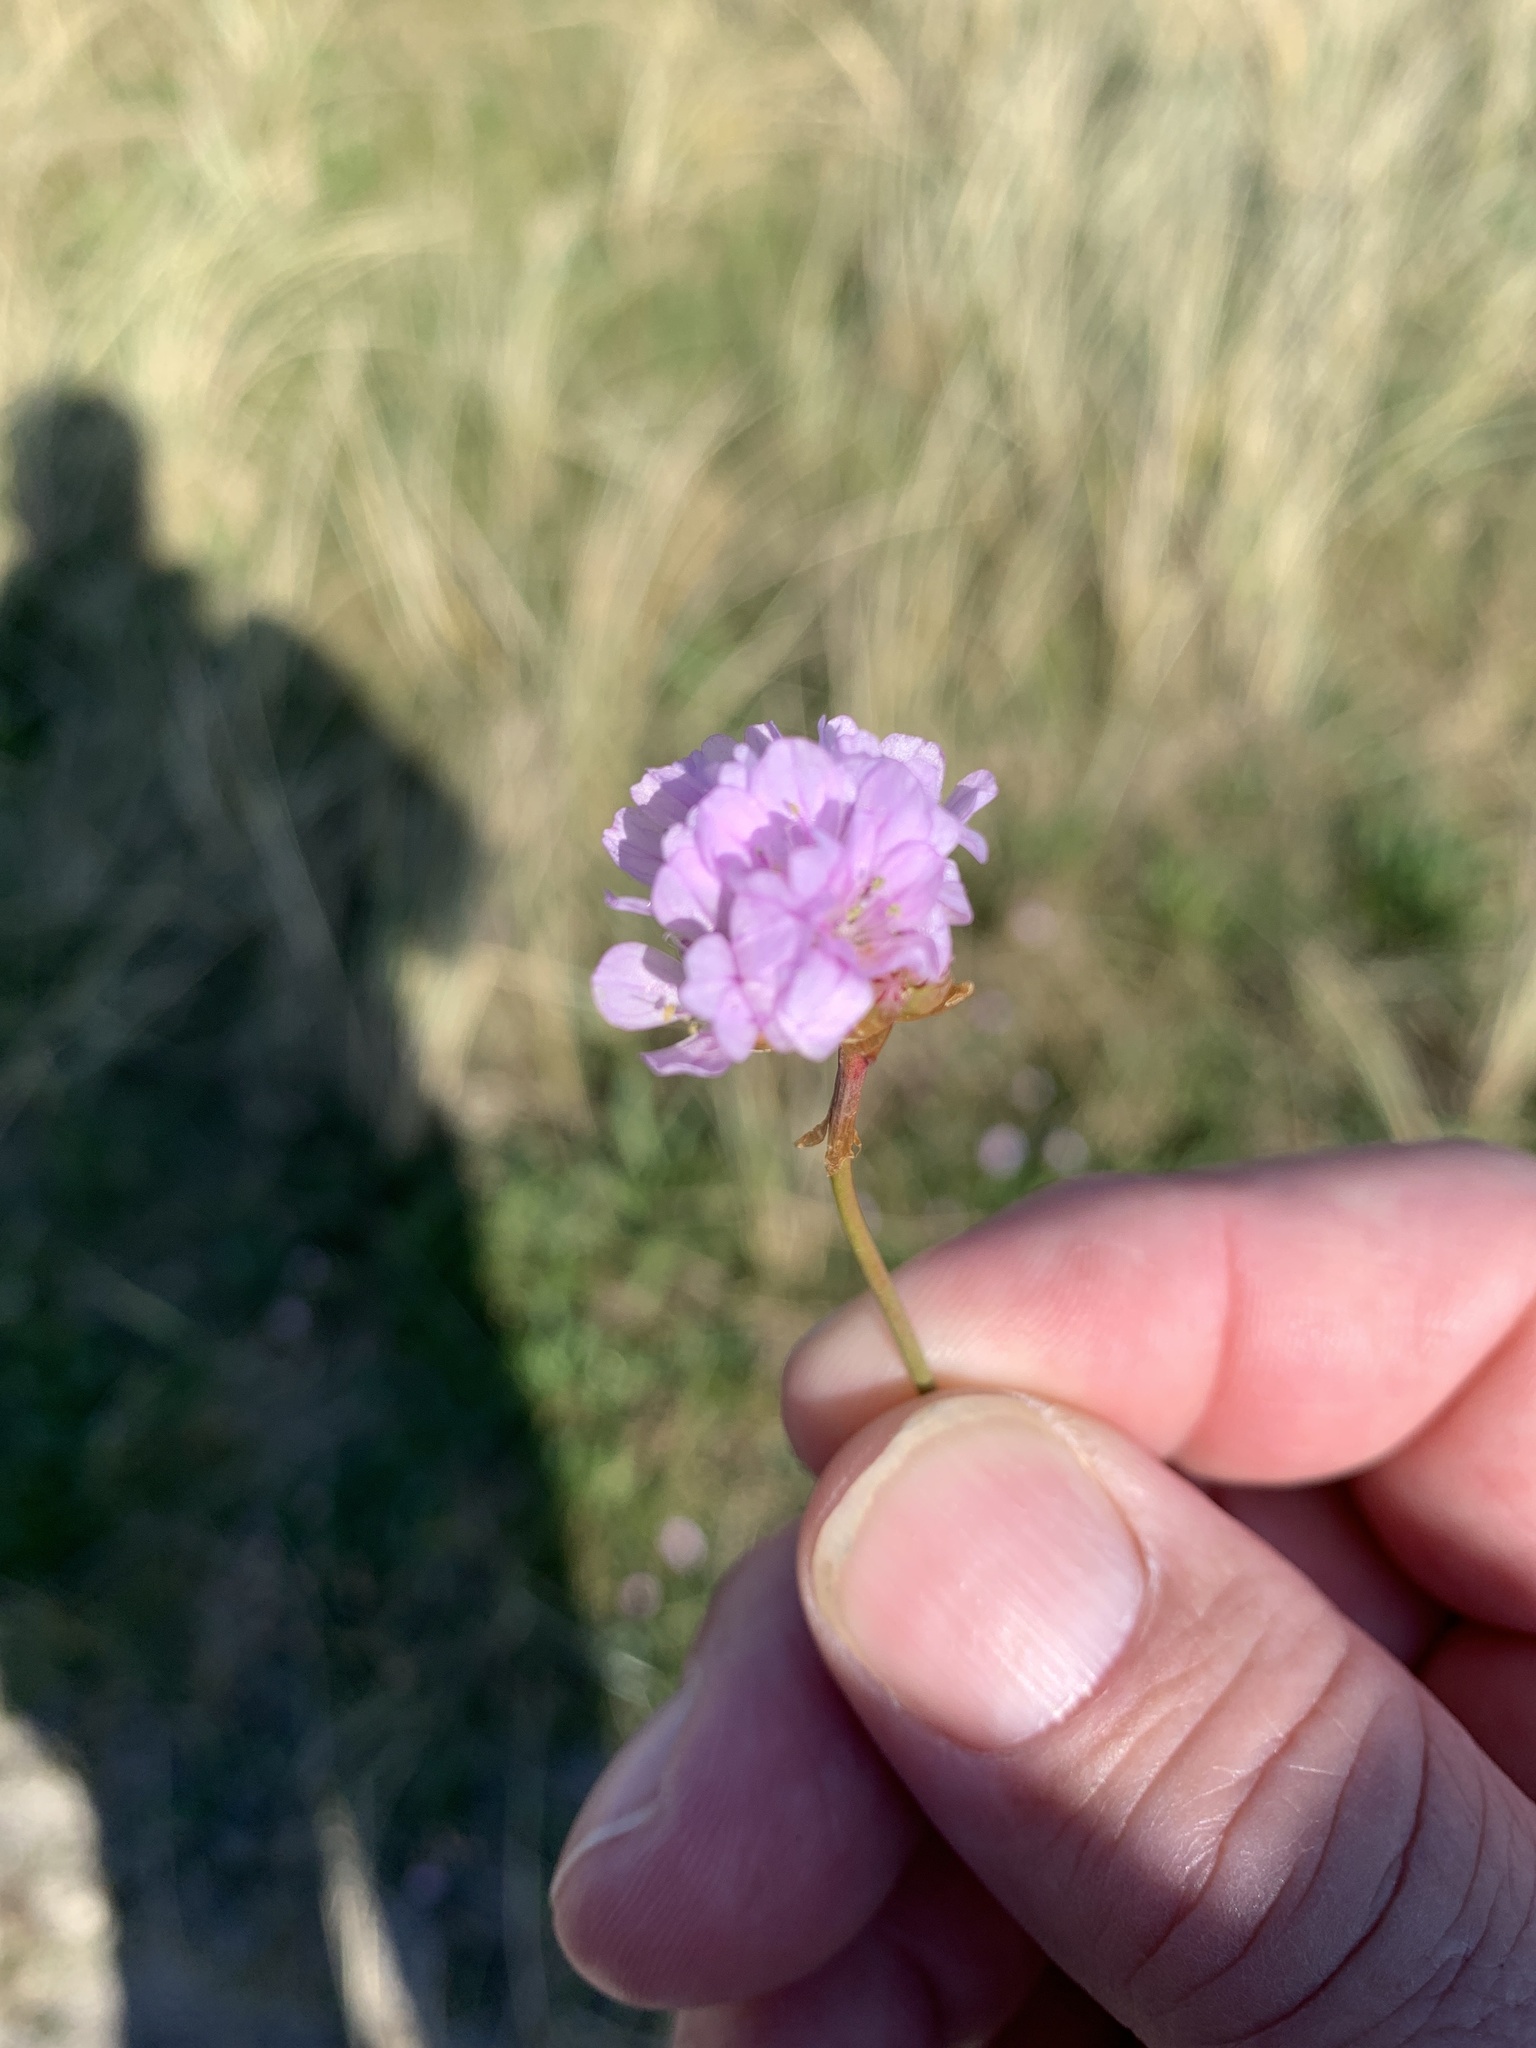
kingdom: Plantae
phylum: Tracheophyta
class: Magnoliopsida
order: Caryophyllales
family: Plumbaginaceae
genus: Armeria
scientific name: Armeria maritima
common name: Thrift
